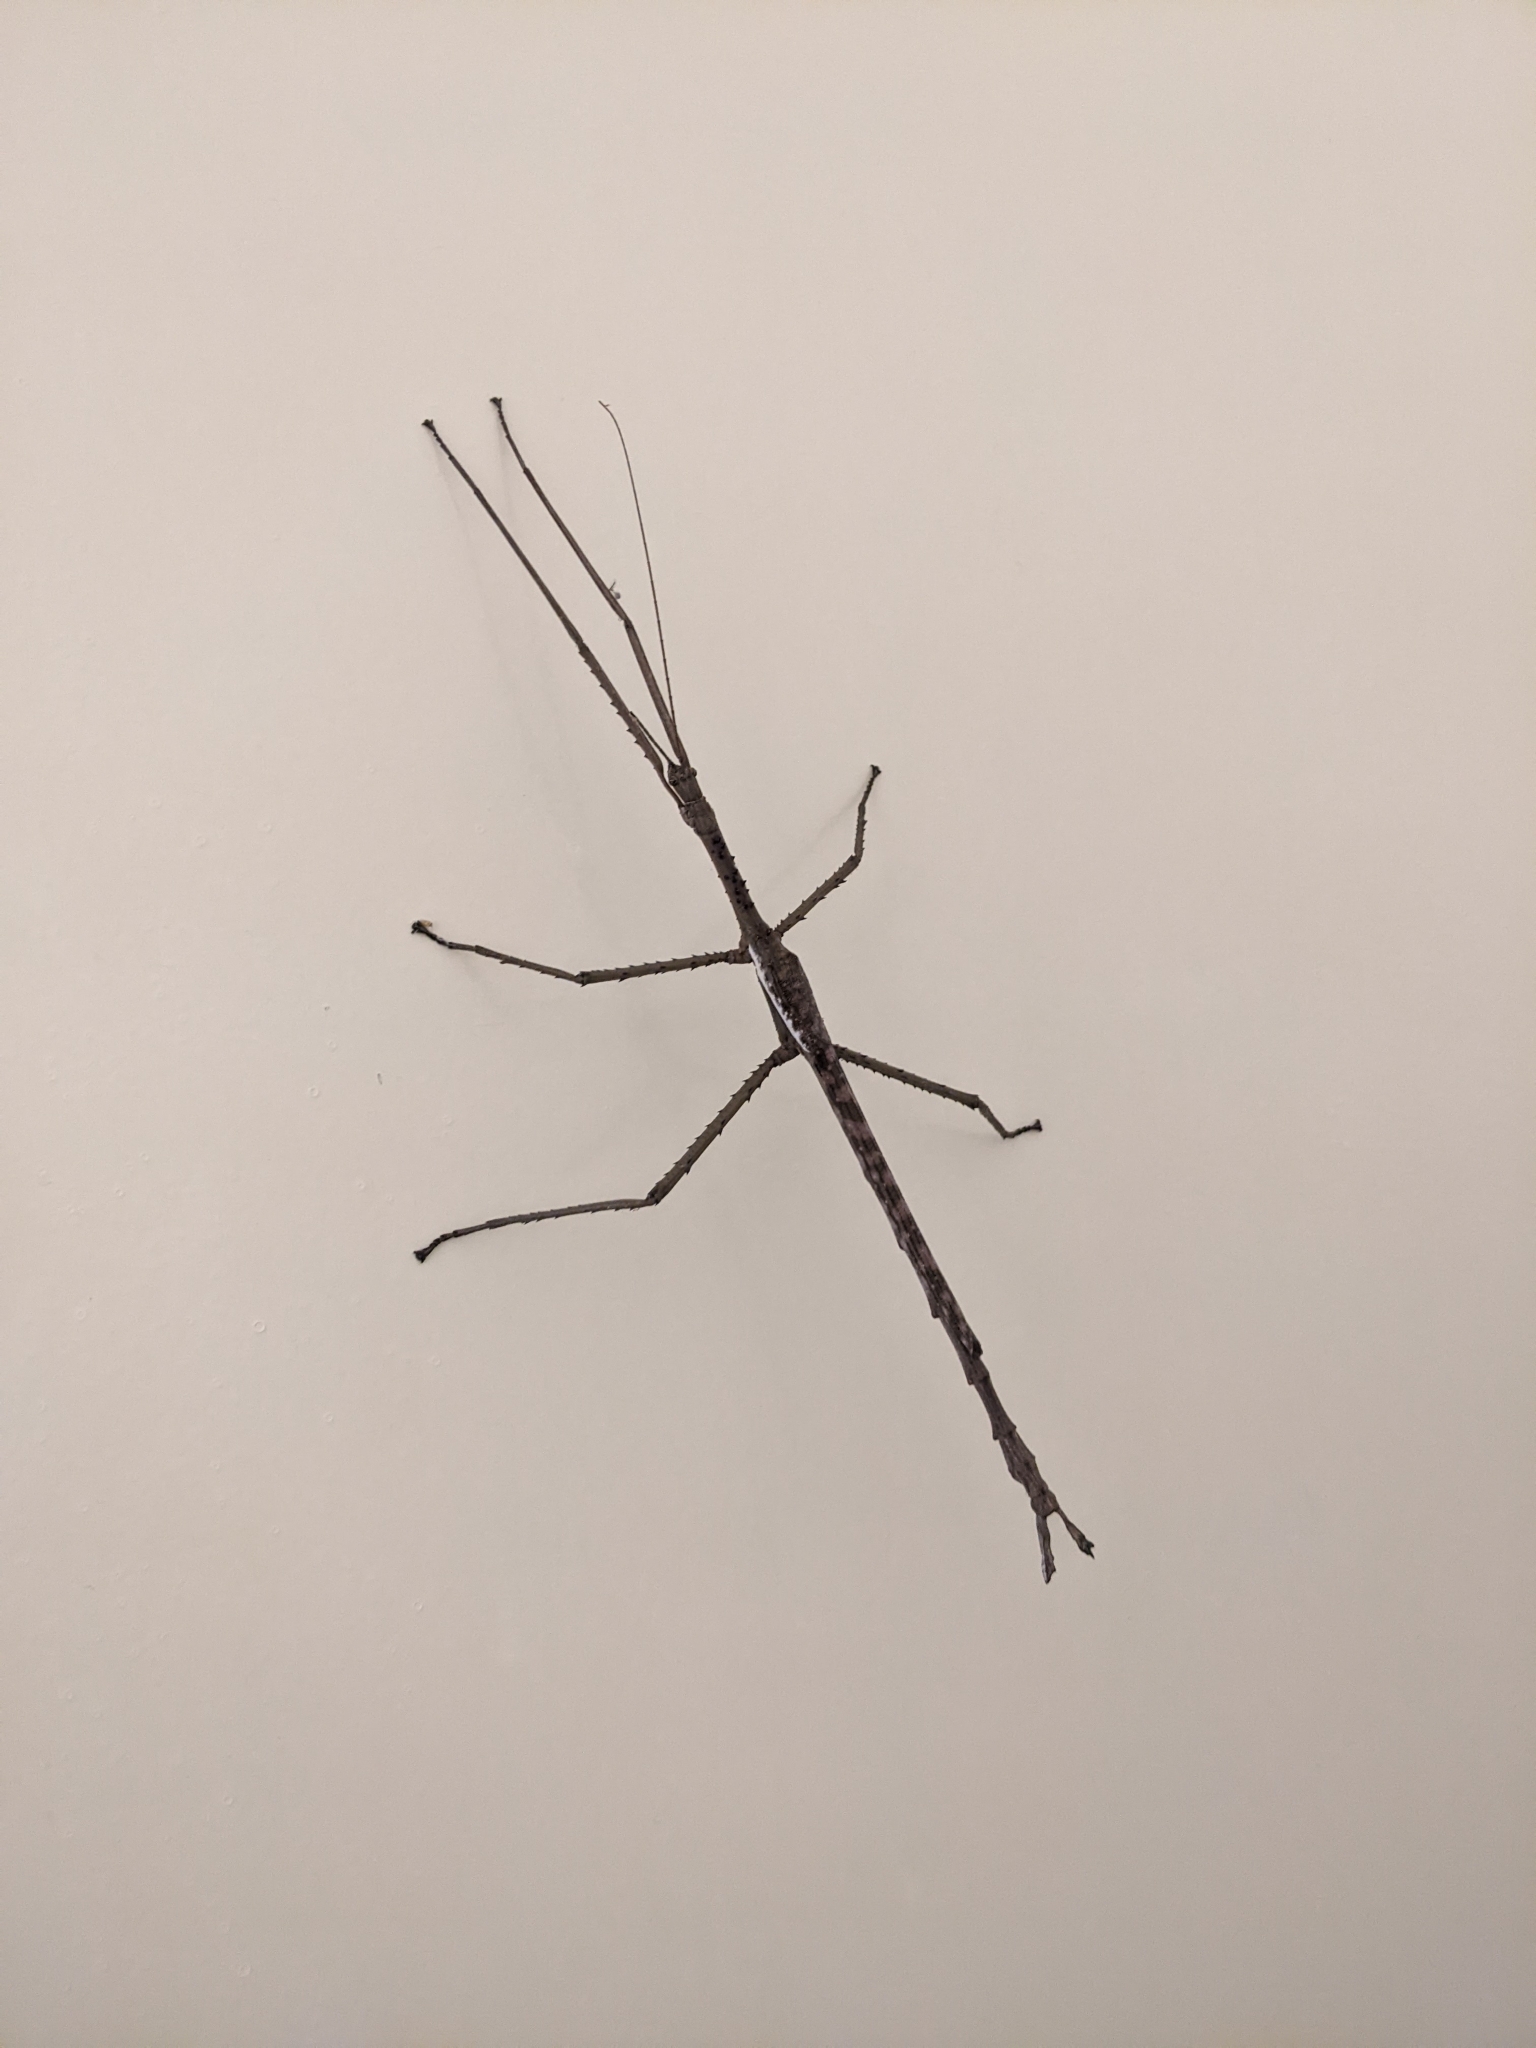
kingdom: Animalia
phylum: Arthropoda
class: Insecta
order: Phasmida
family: Phasmatidae
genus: Acrophylla
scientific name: Acrophylla titan
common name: Titan stick insect
